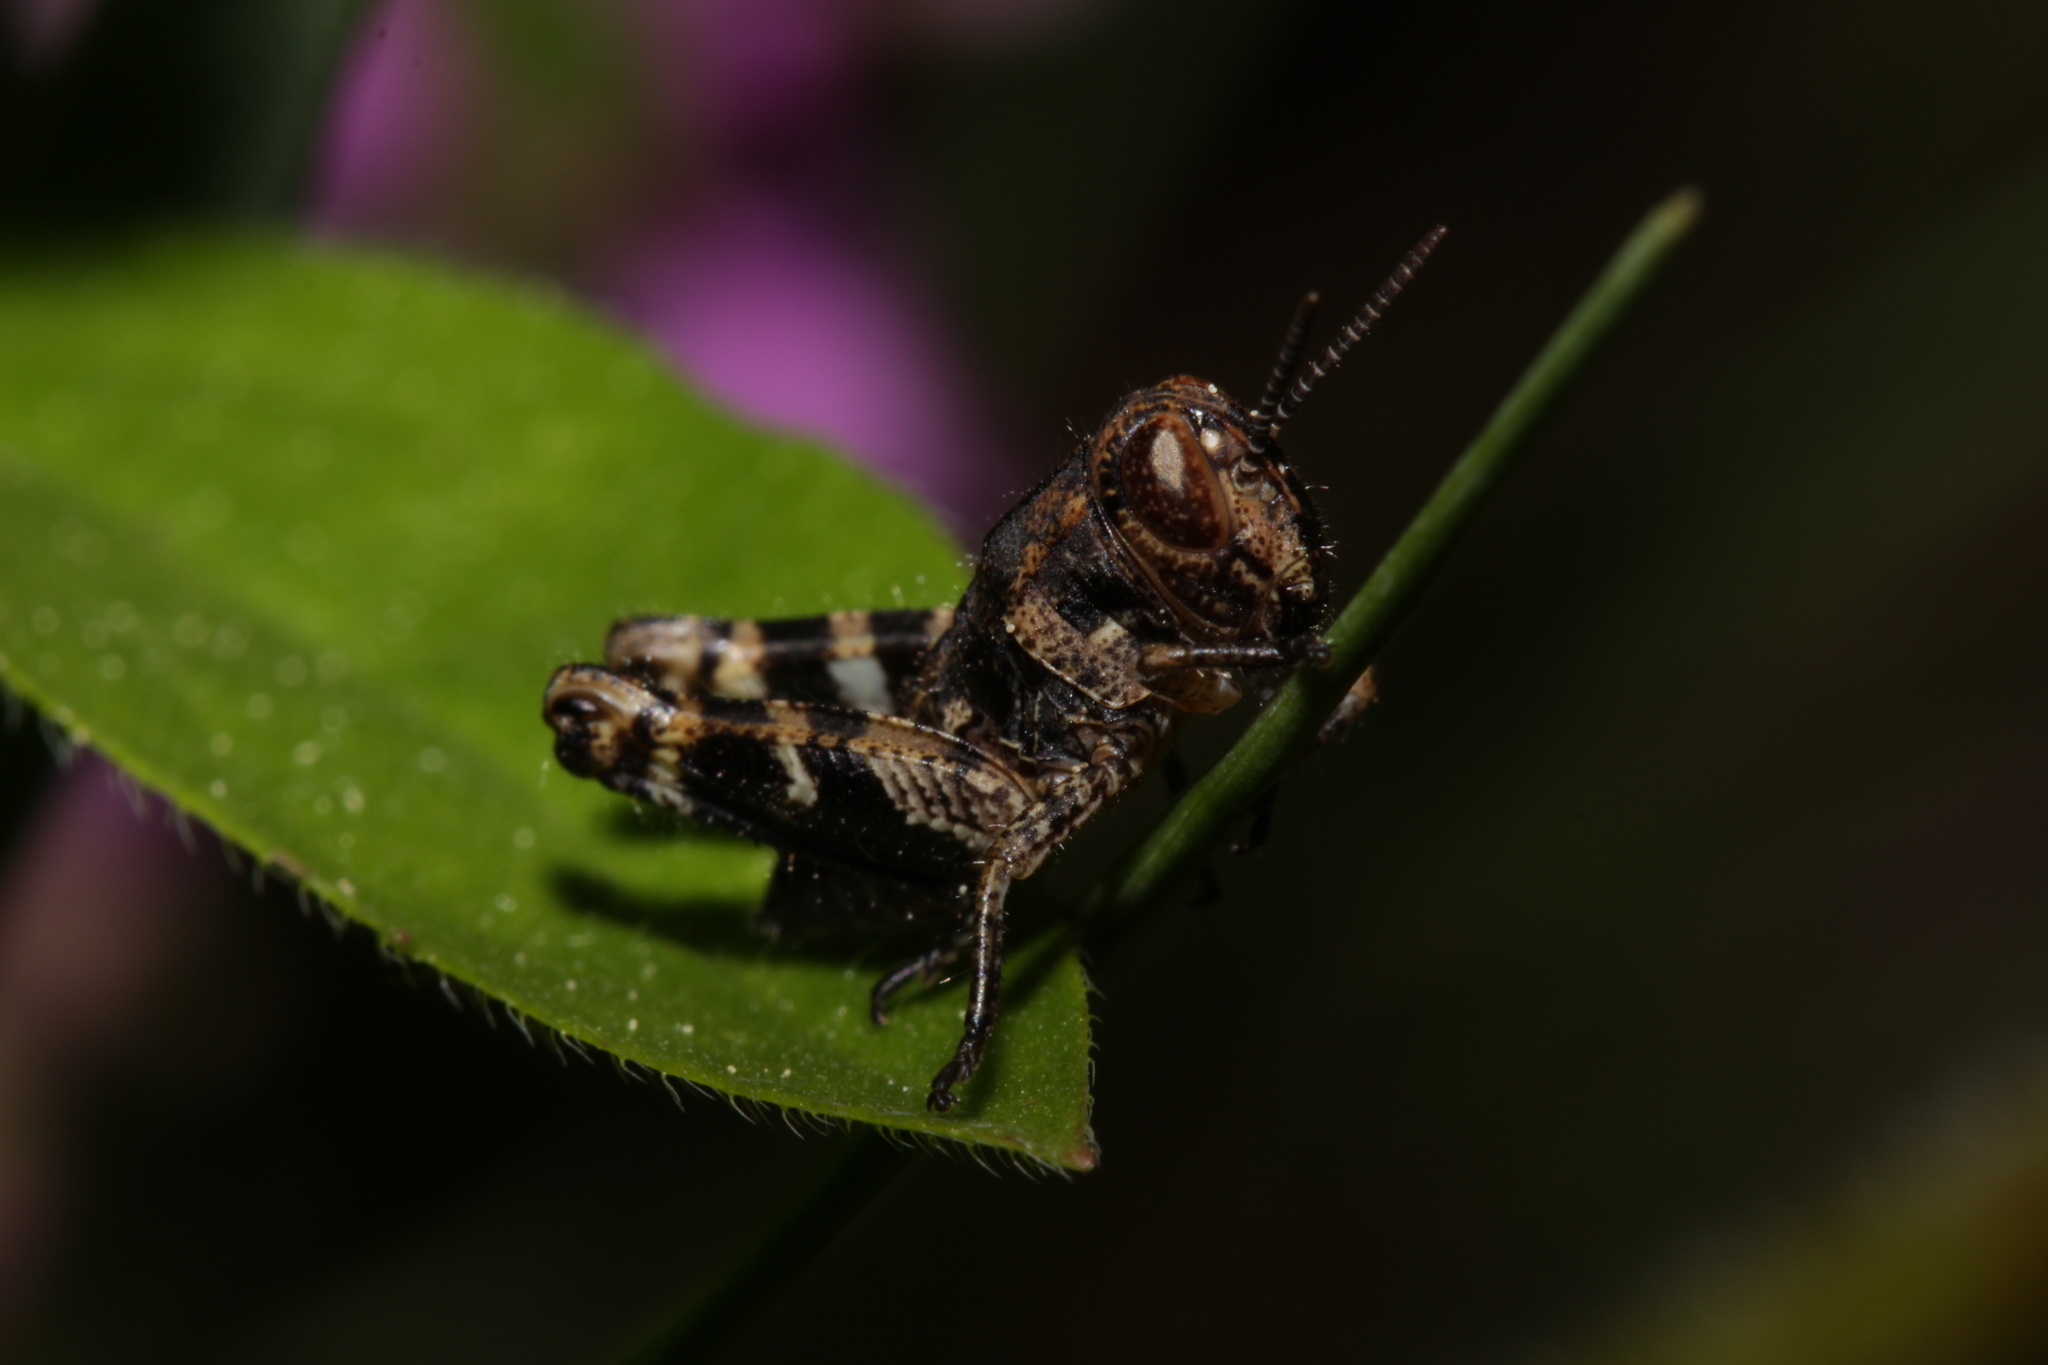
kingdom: Animalia
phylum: Arthropoda
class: Insecta
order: Orthoptera
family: Acrididae
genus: Calliptamus
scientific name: Calliptamus italicus
